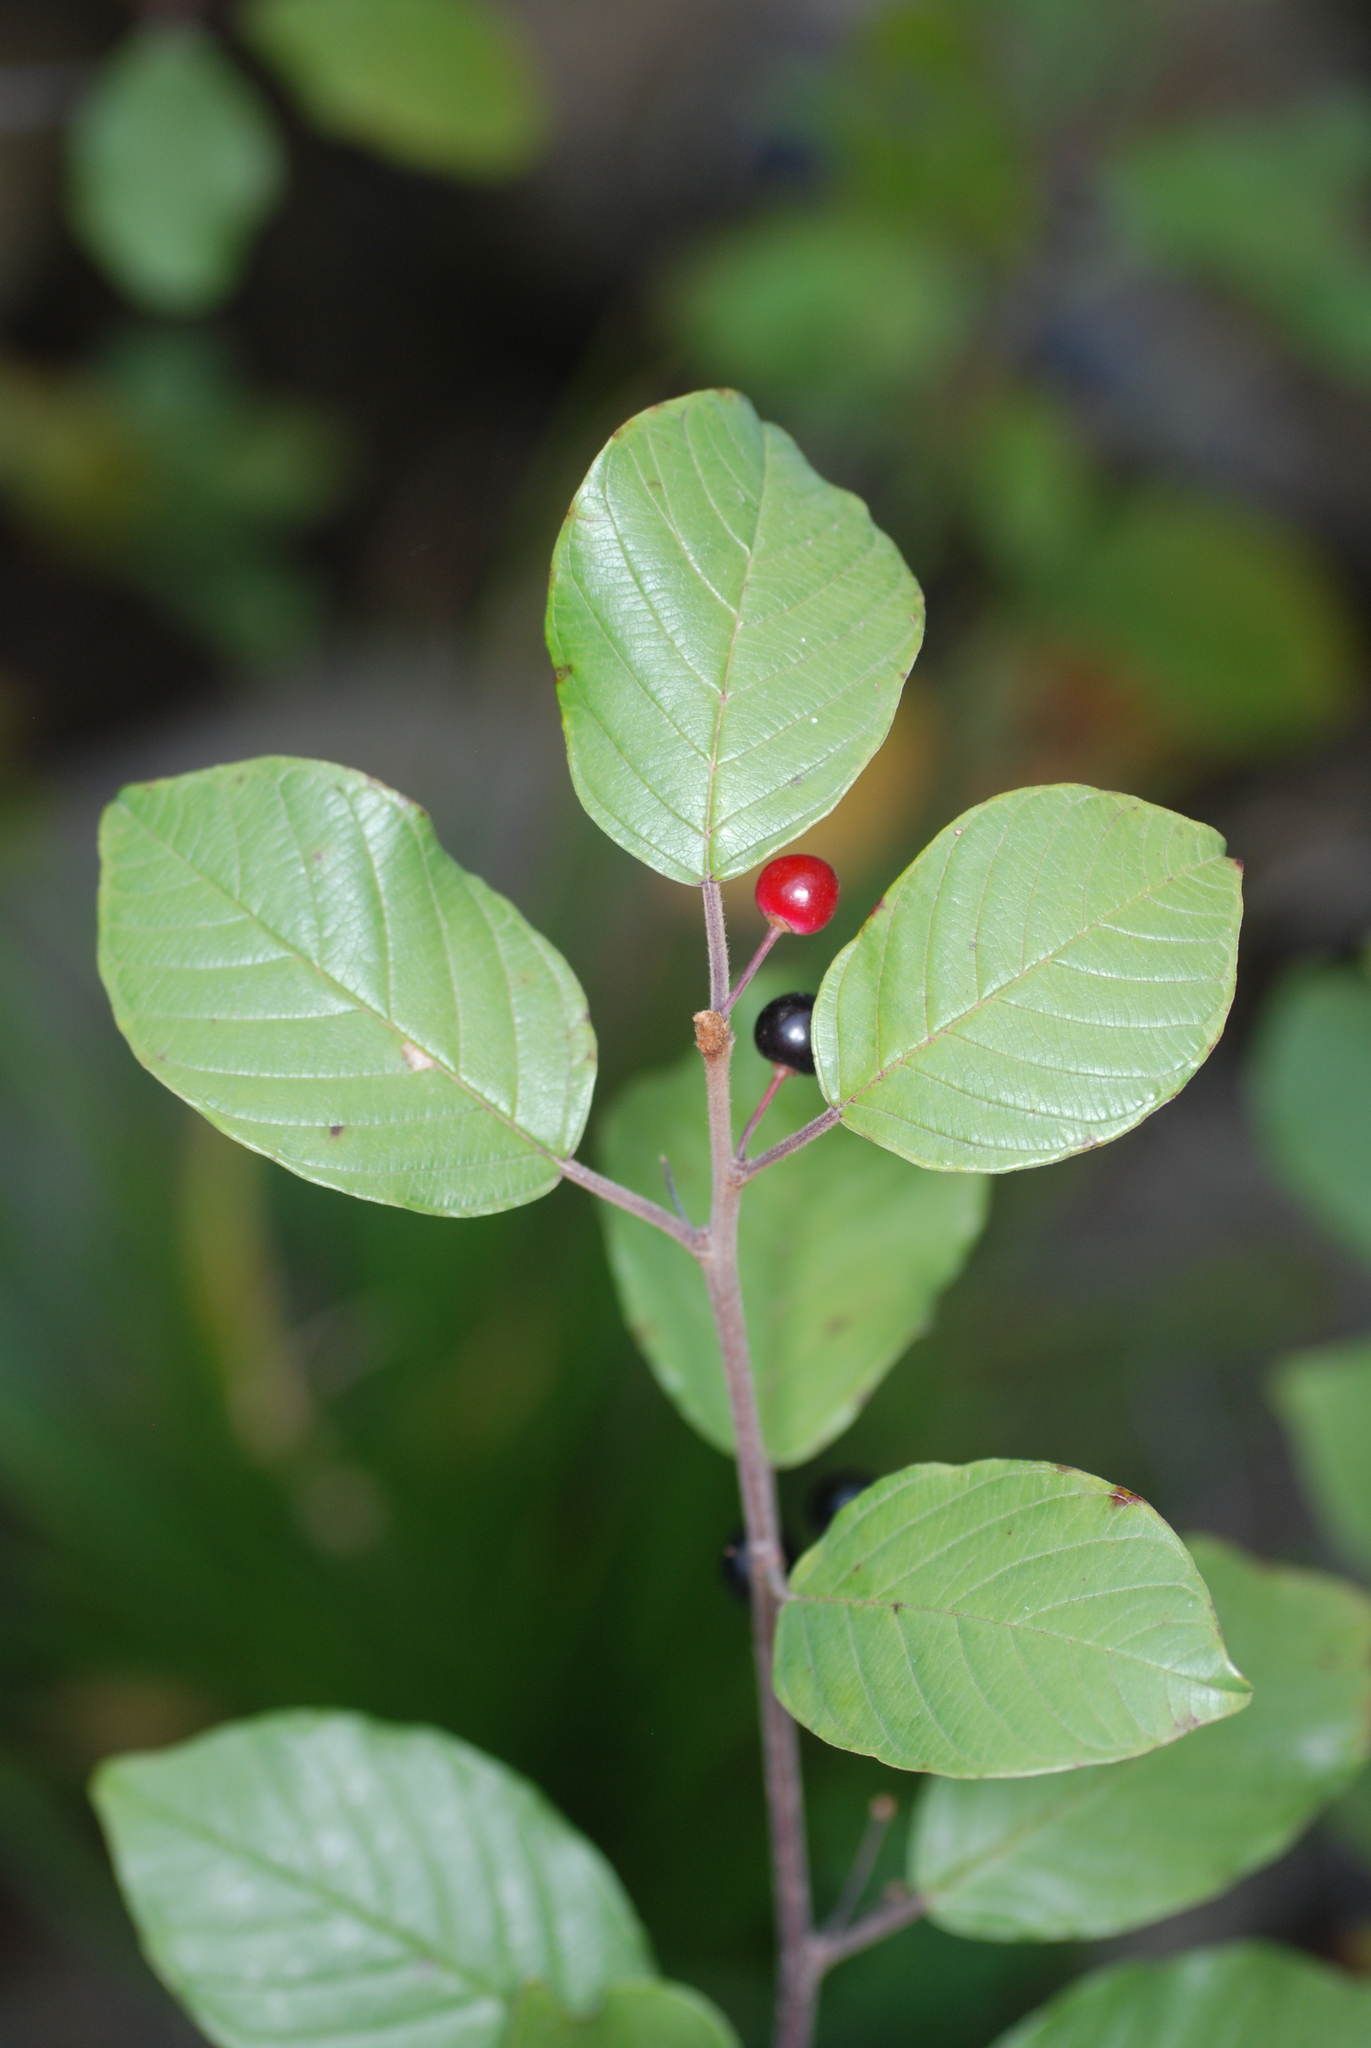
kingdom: Plantae
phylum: Tracheophyta
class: Magnoliopsida
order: Rosales
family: Rhamnaceae
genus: Frangula
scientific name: Frangula alnus
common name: Alder buckthorn
